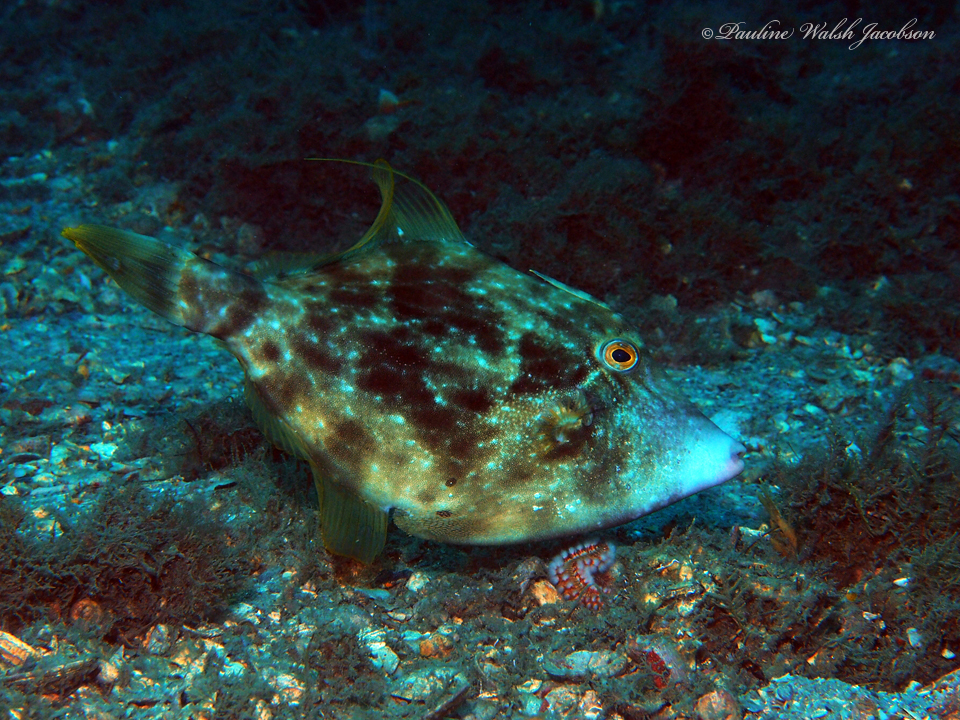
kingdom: Animalia
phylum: Chordata
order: Tetraodontiformes
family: Monacanthidae
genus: Stephanolepis
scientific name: Stephanolepis hispidus
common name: Planehead filefish
